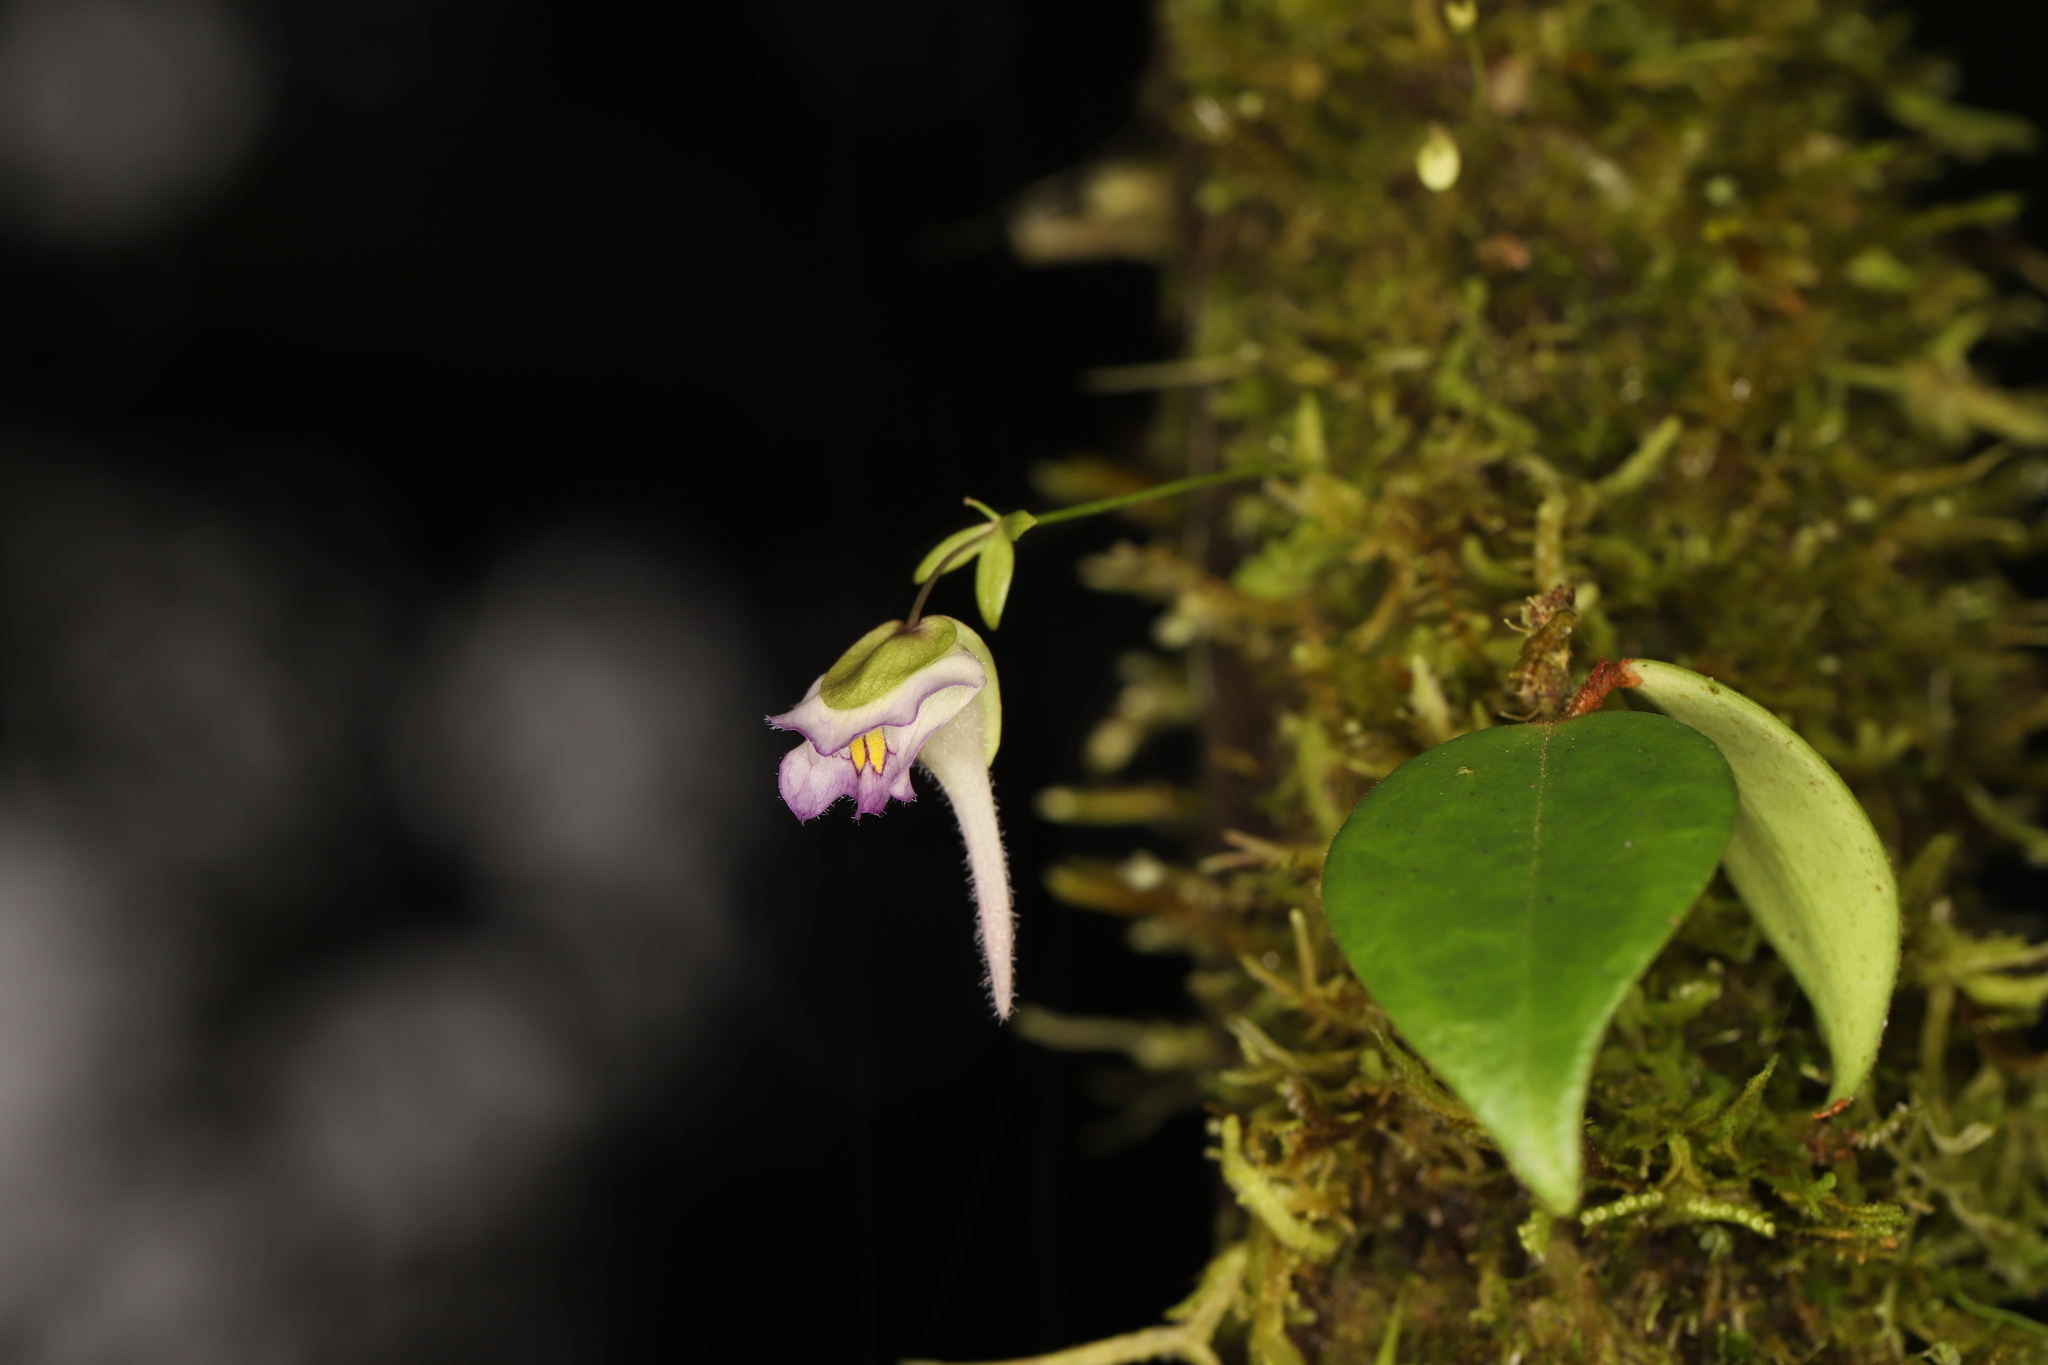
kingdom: Plantae
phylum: Tracheophyta
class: Magnoliopsida
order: Lamiales
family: Lentibulariaceae
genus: Utricularia
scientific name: Utricularia jamesoniana
